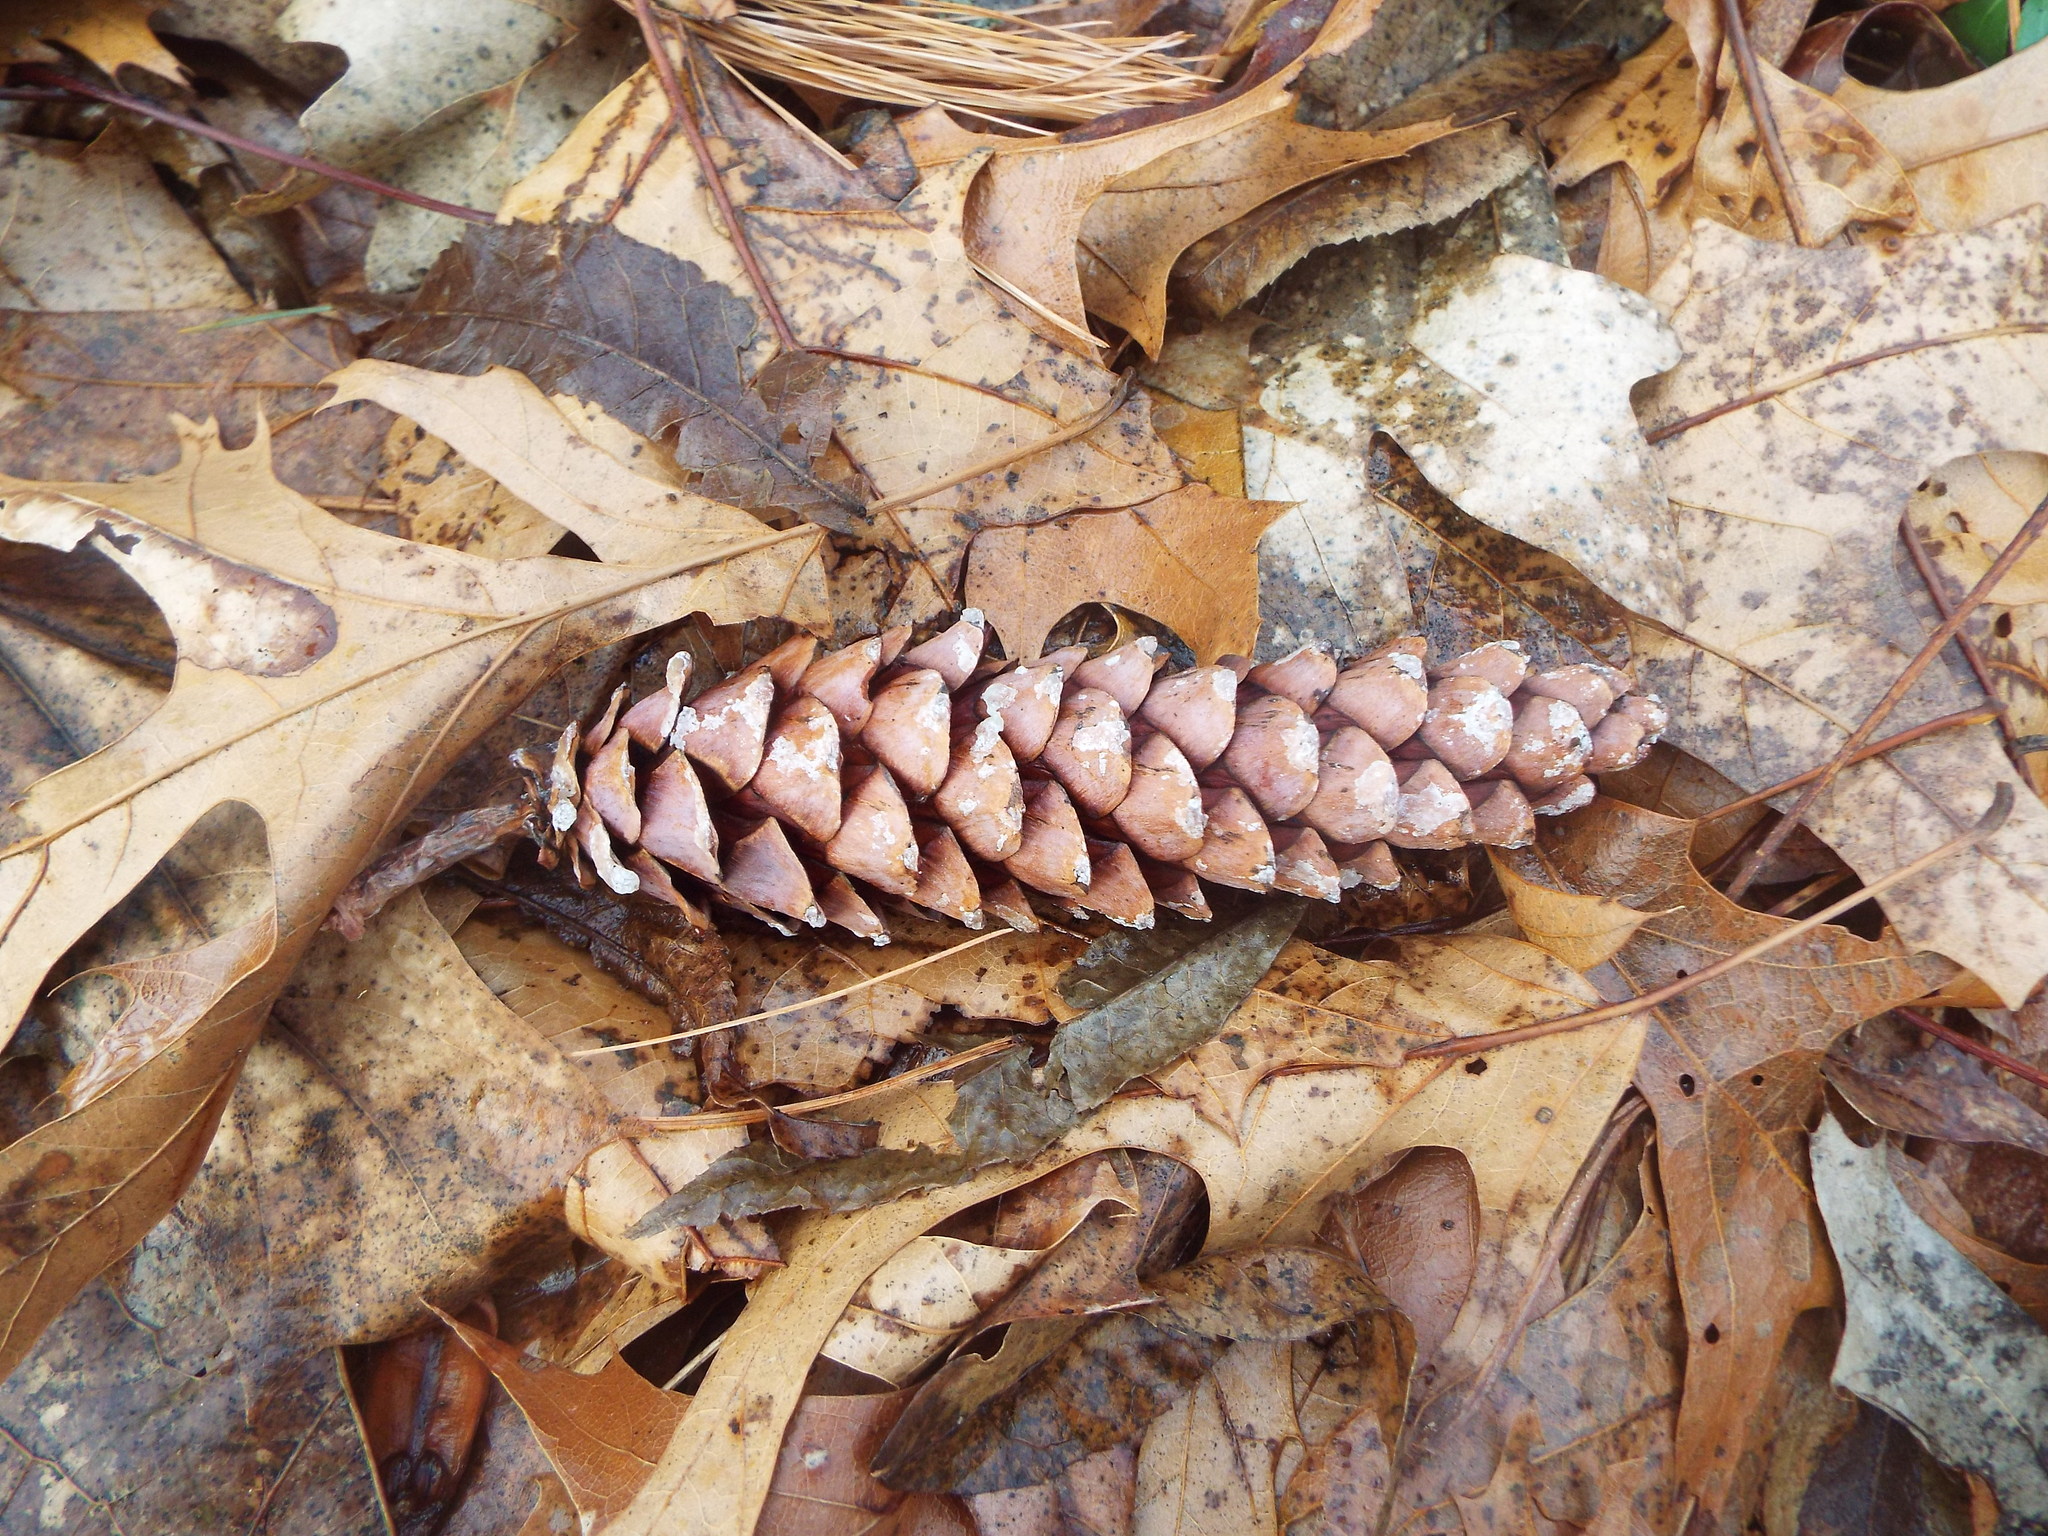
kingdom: Plantae
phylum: Tracheophyta
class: Pinopsida
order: Pinales
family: Pinaceae
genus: Pinus
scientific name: Pinus strobus
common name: Weymouth pine
